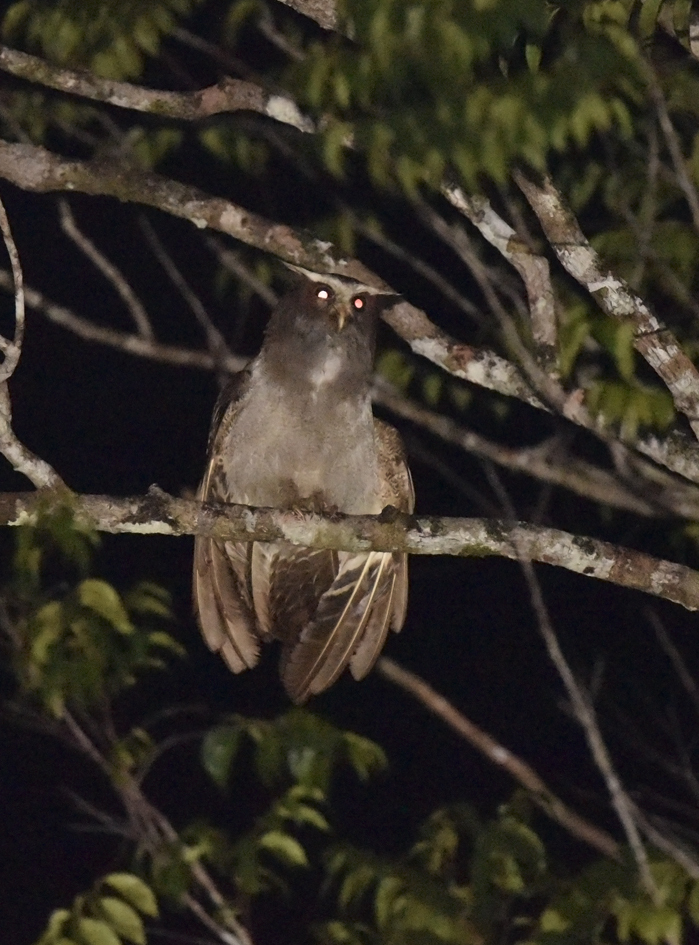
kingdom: Animalia
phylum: Chordata
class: Aves
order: Strigiformes
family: Strigidae
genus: Lophostrix
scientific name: Lophostrix cristata
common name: Crested owl
